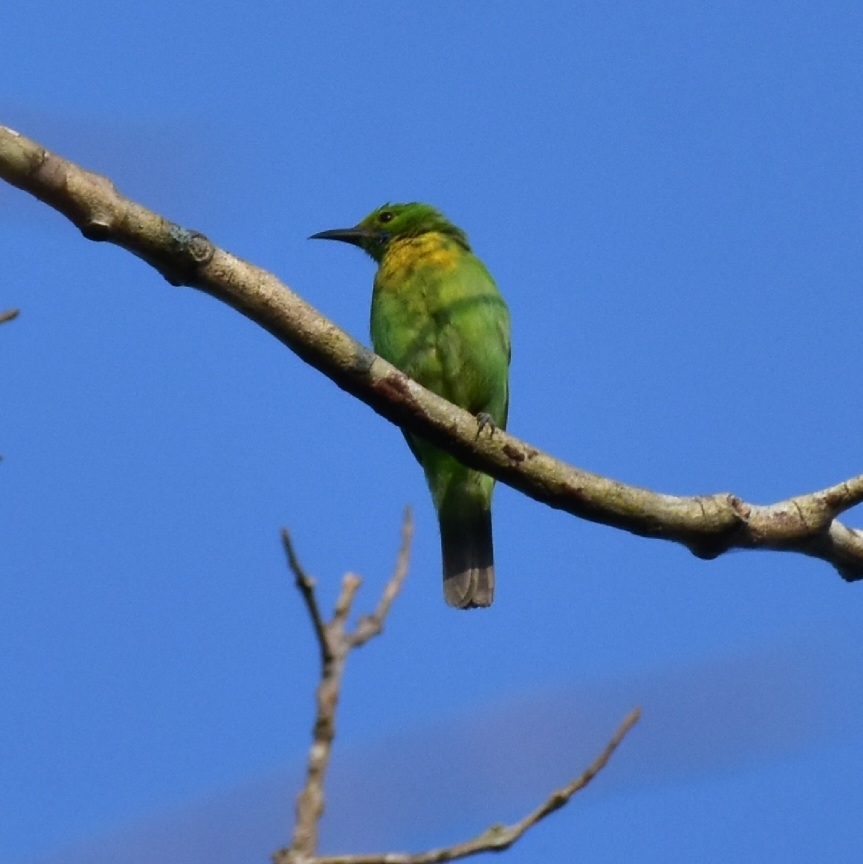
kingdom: Animalia
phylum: Chordata
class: Aves
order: Passeriformes
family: Chloropseidae
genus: Chloropsis
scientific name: Chloropsis aurifrons
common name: Golden-fronted leafbird
